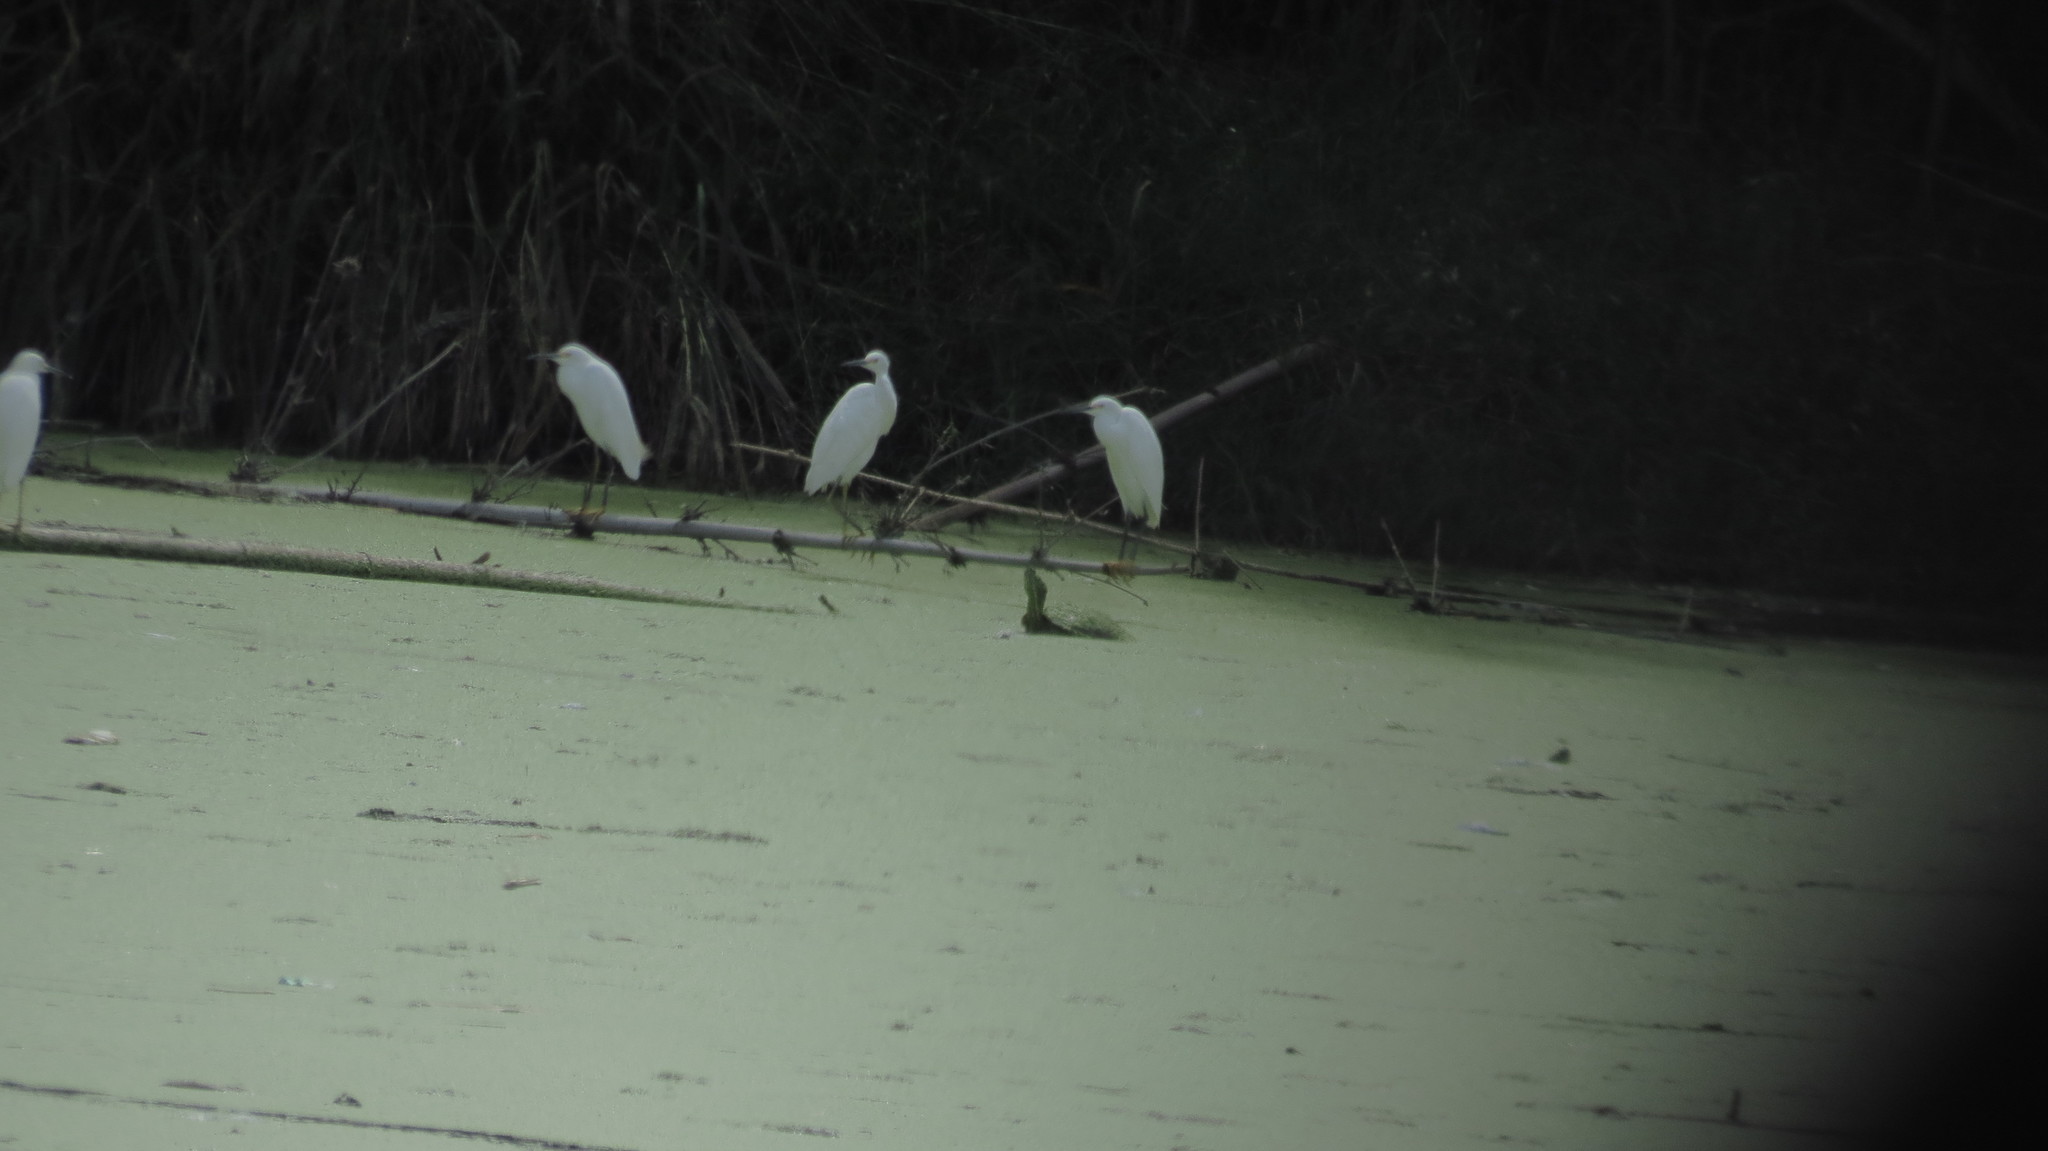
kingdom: Animalia
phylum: Chordata
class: Aves
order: Pelecaniformes
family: Ardeidae
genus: Egretta
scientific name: Egretta thula
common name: Snowy egret
